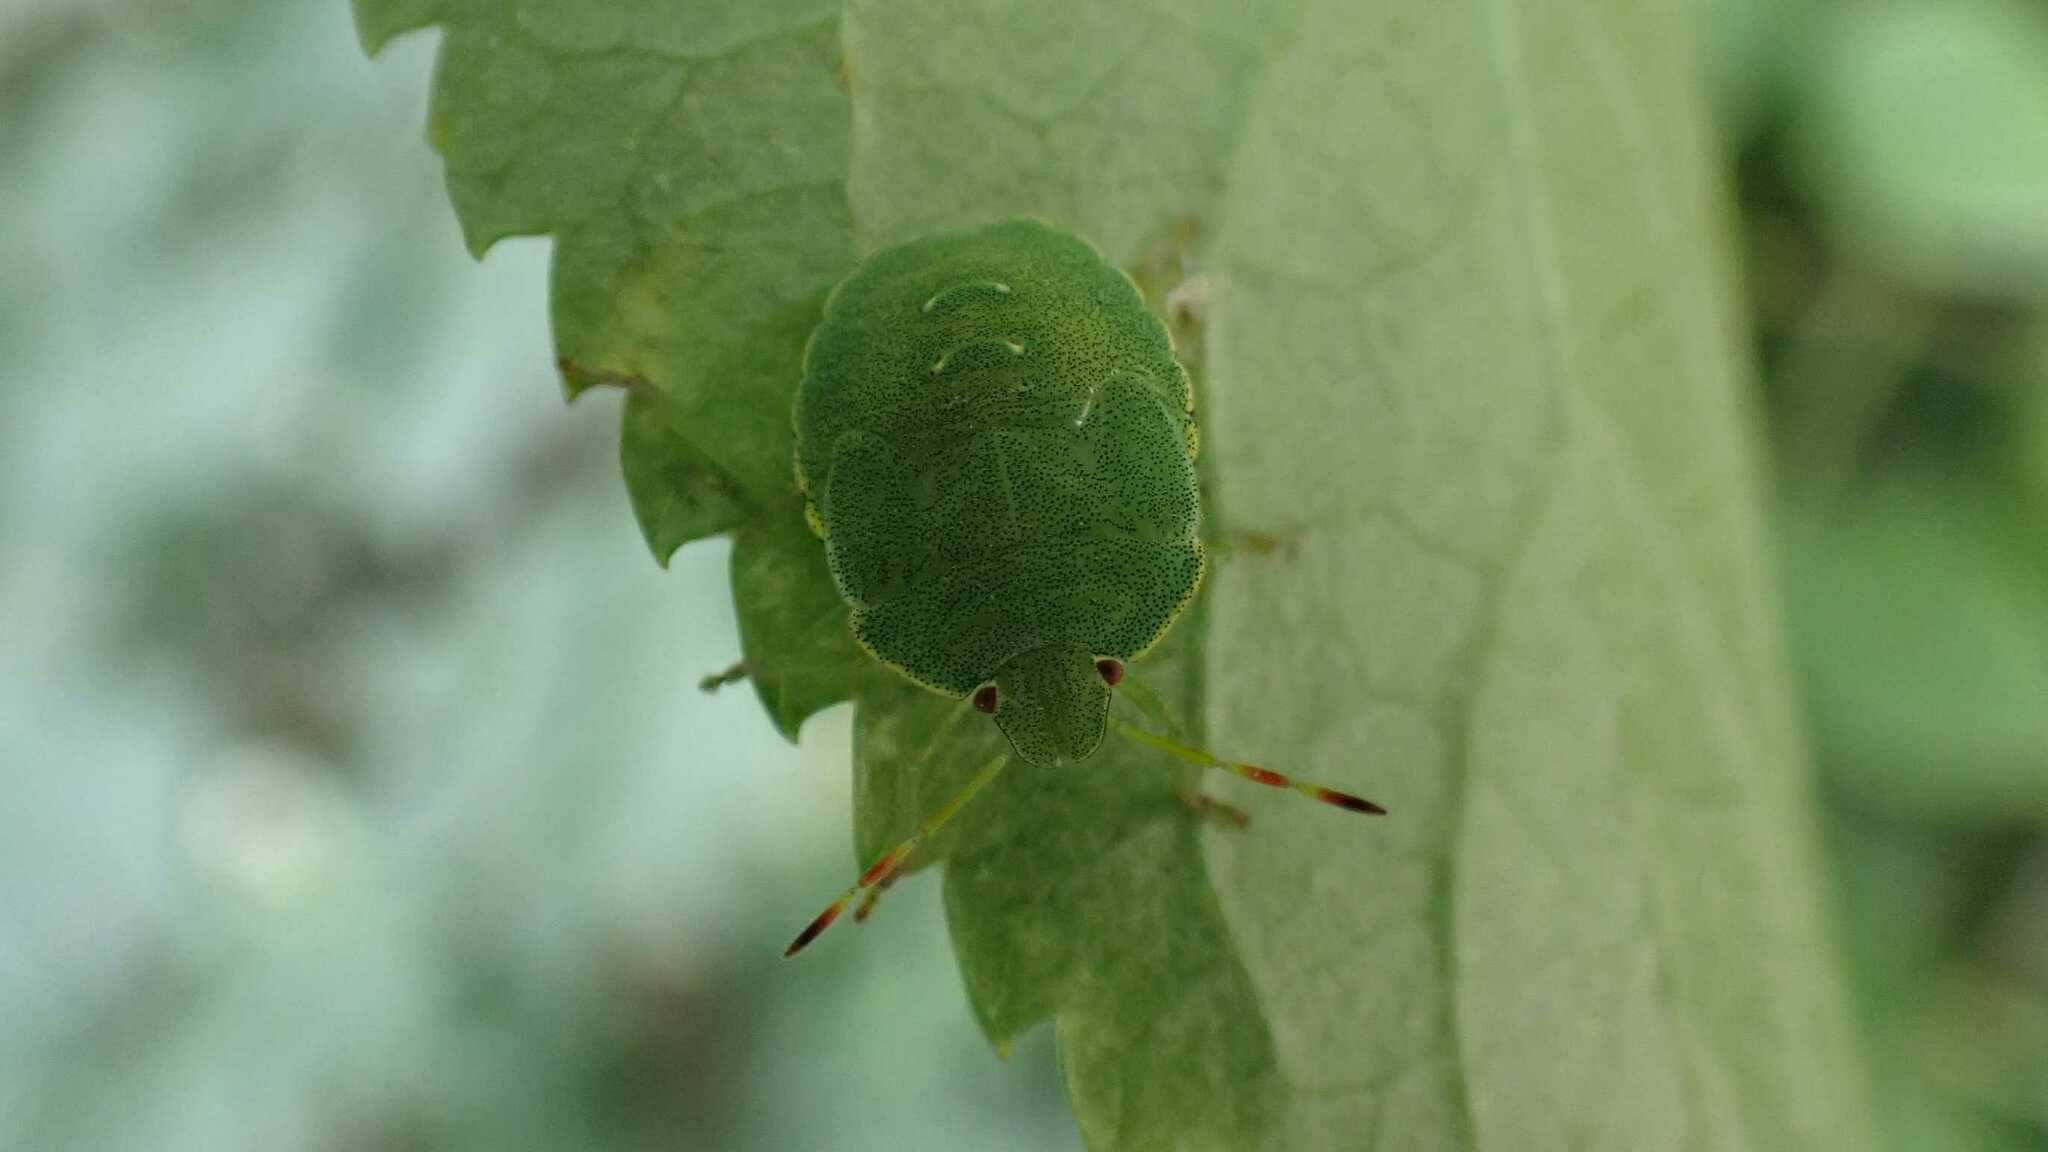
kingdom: Animalia
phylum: Arthropoda
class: Insecta
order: Hemiptera
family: Pentatomidae
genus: Palomena
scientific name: Palomena prasina
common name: Green shieldbug
